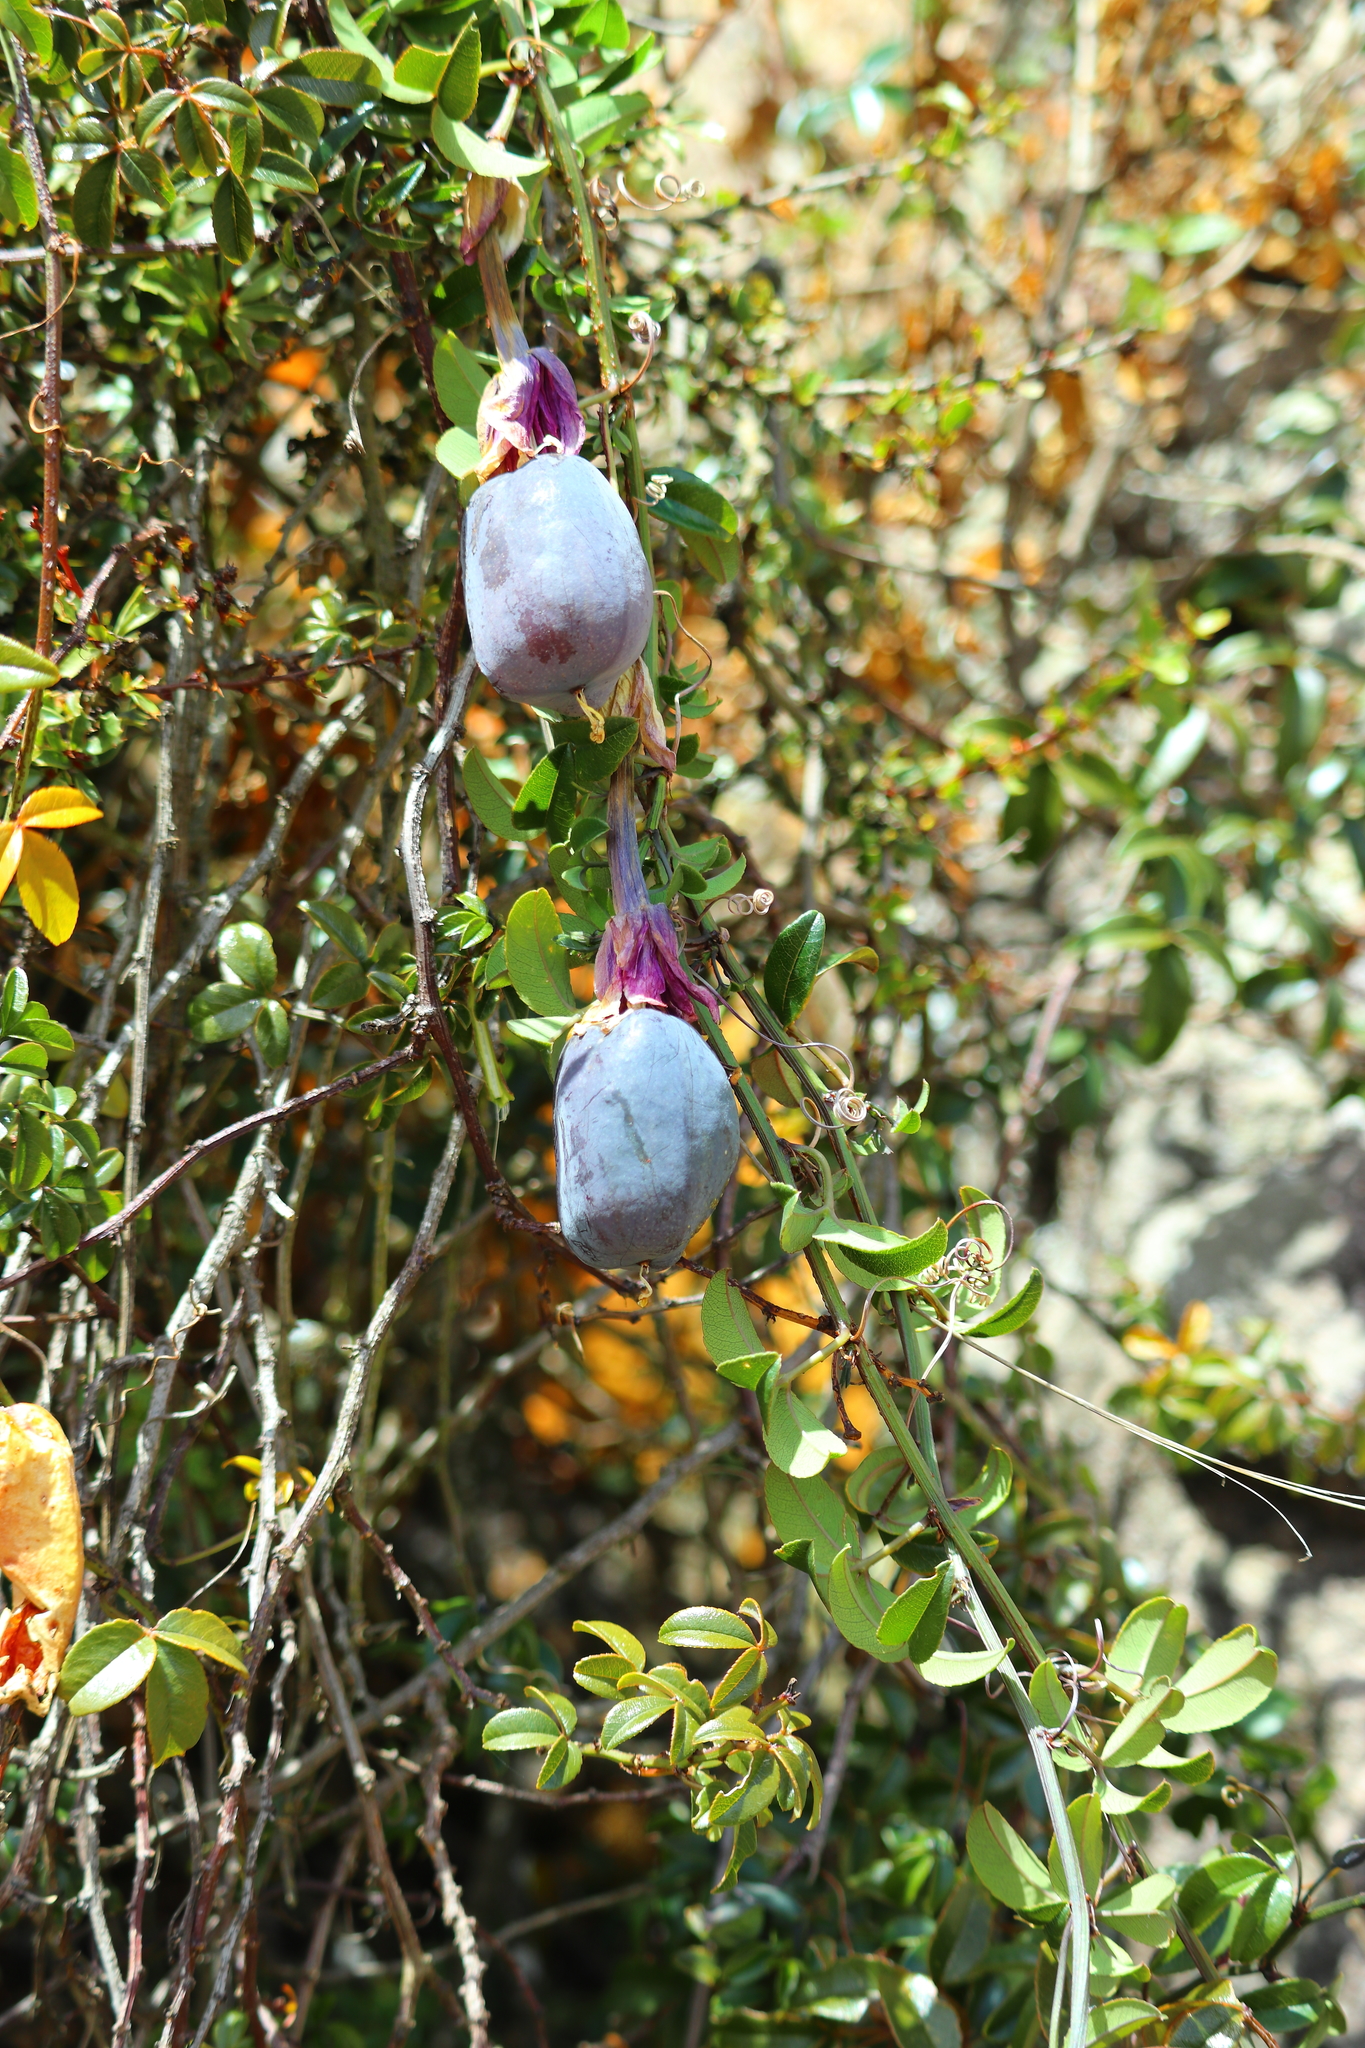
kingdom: Plantae
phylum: Tracheophyta
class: Magnoliopsida
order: Malpighiales
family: Passifloraceae
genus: Passiflora
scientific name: Passiflora huamachucoensis
